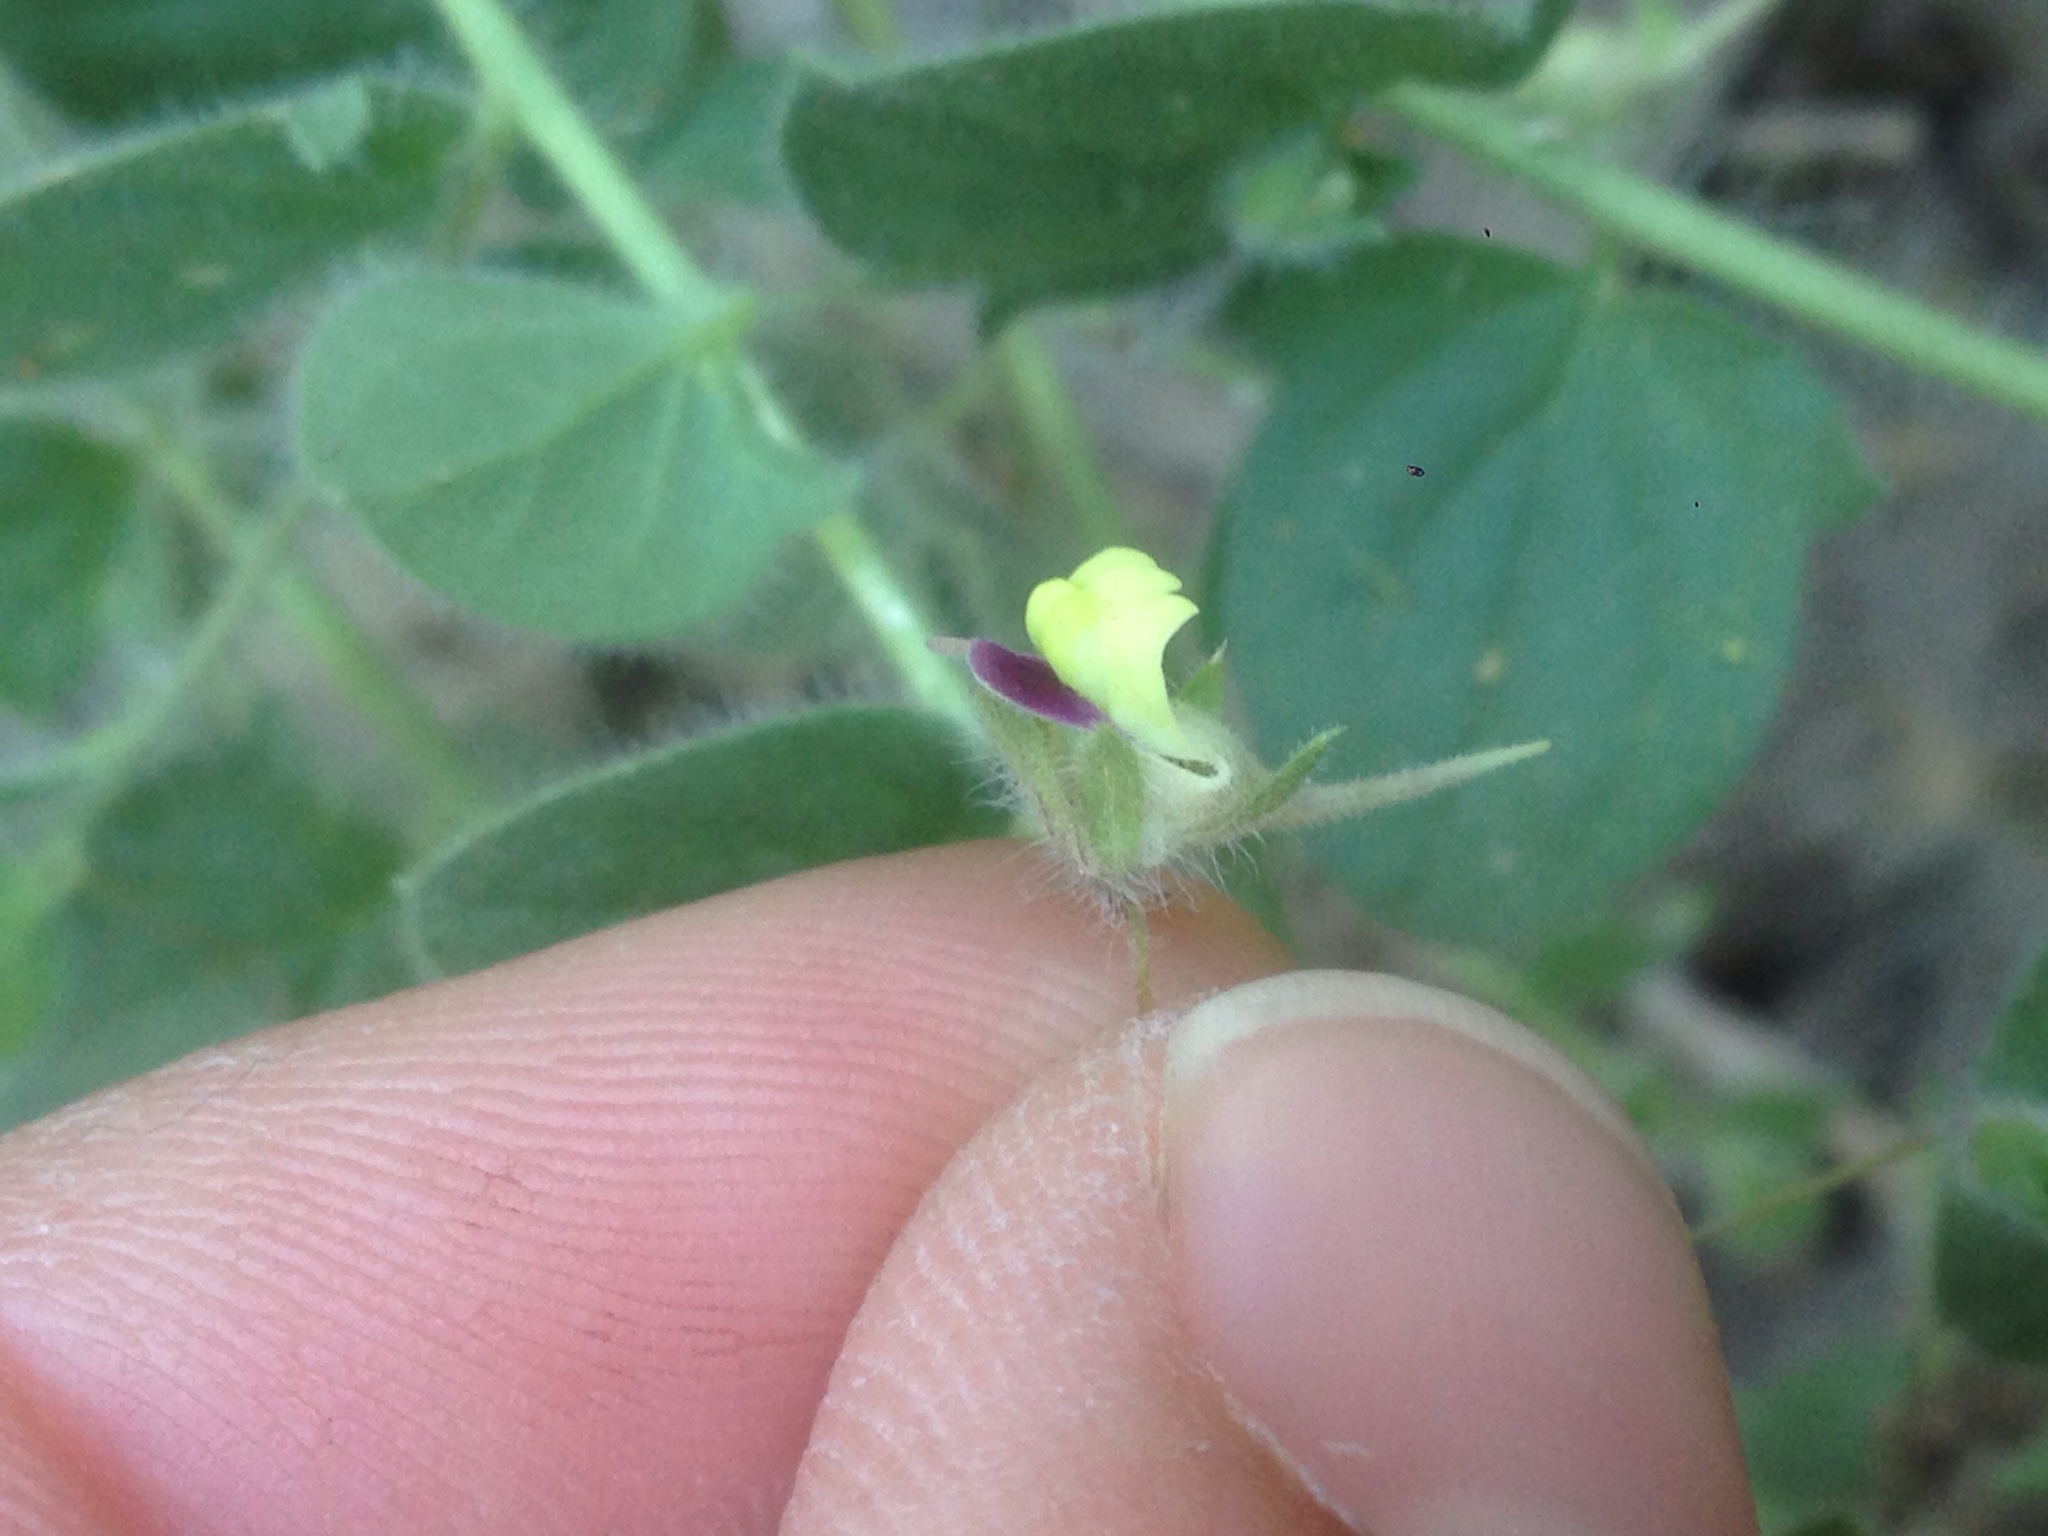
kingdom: Plantae
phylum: Tracheophyta
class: Magnoliopsida
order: Lamiales
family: Plantaginaceae
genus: Kickxia
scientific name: Kickxia elatine
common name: Sharp-leaved fluellen
